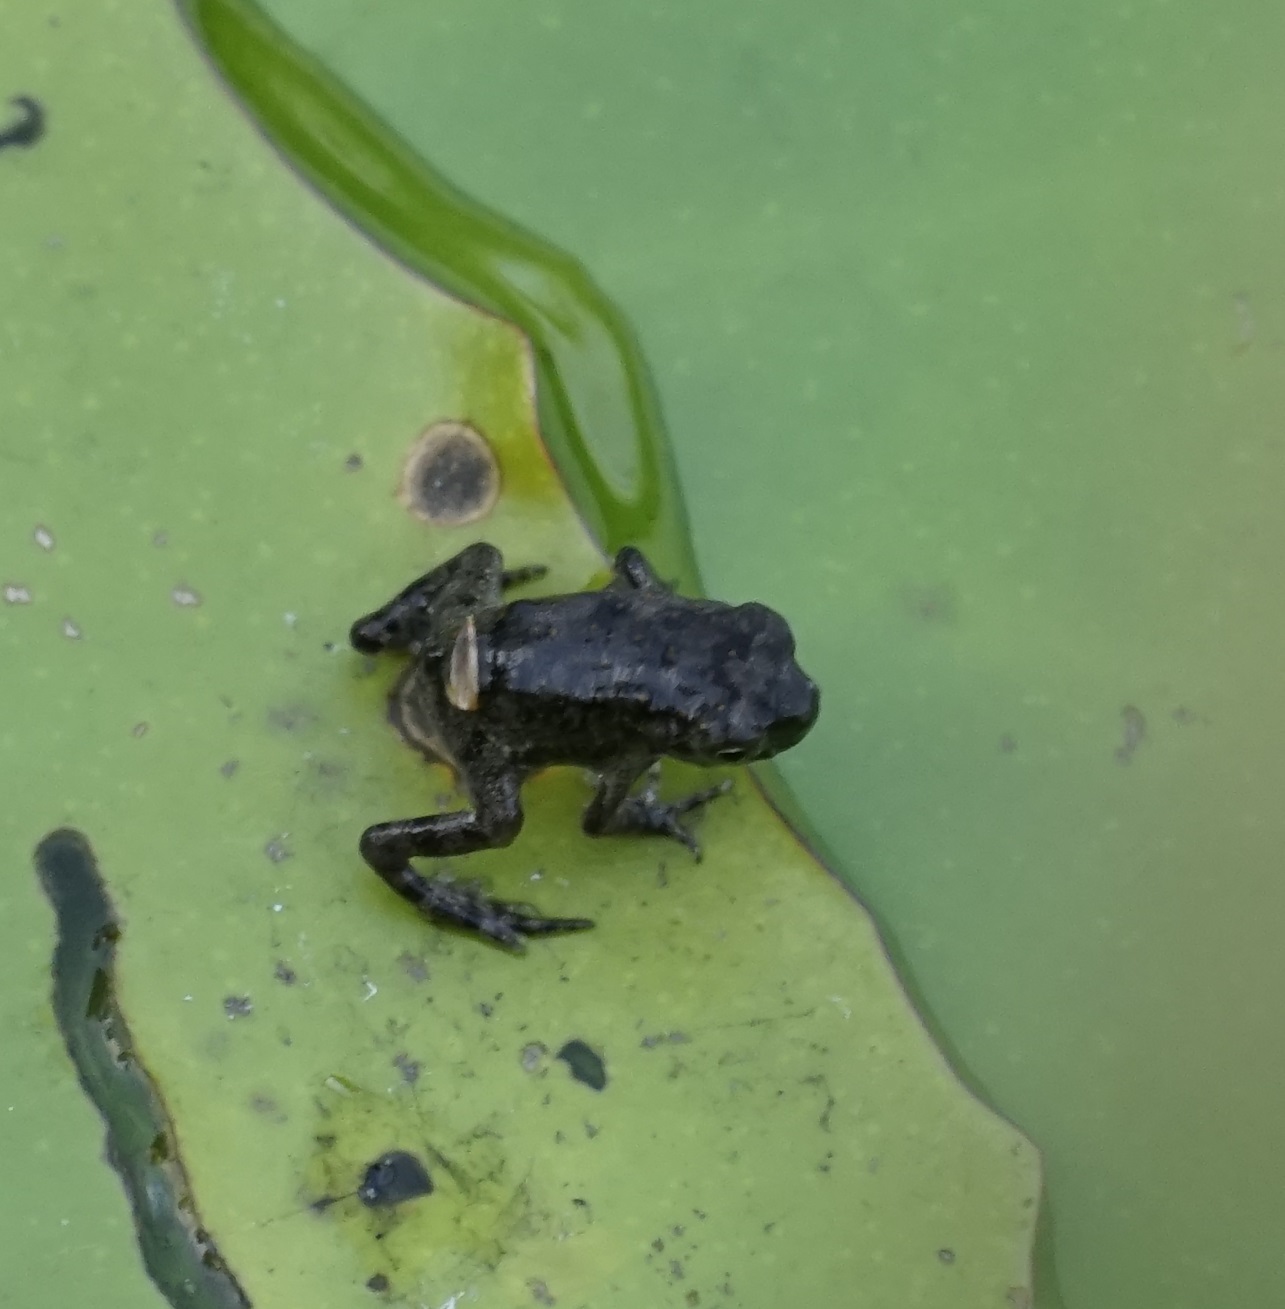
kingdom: Animalia
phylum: Chordata
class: Amphibia
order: Anura
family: Bufonidae
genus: Rhinella
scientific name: Rhinella marina
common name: Cane toad
